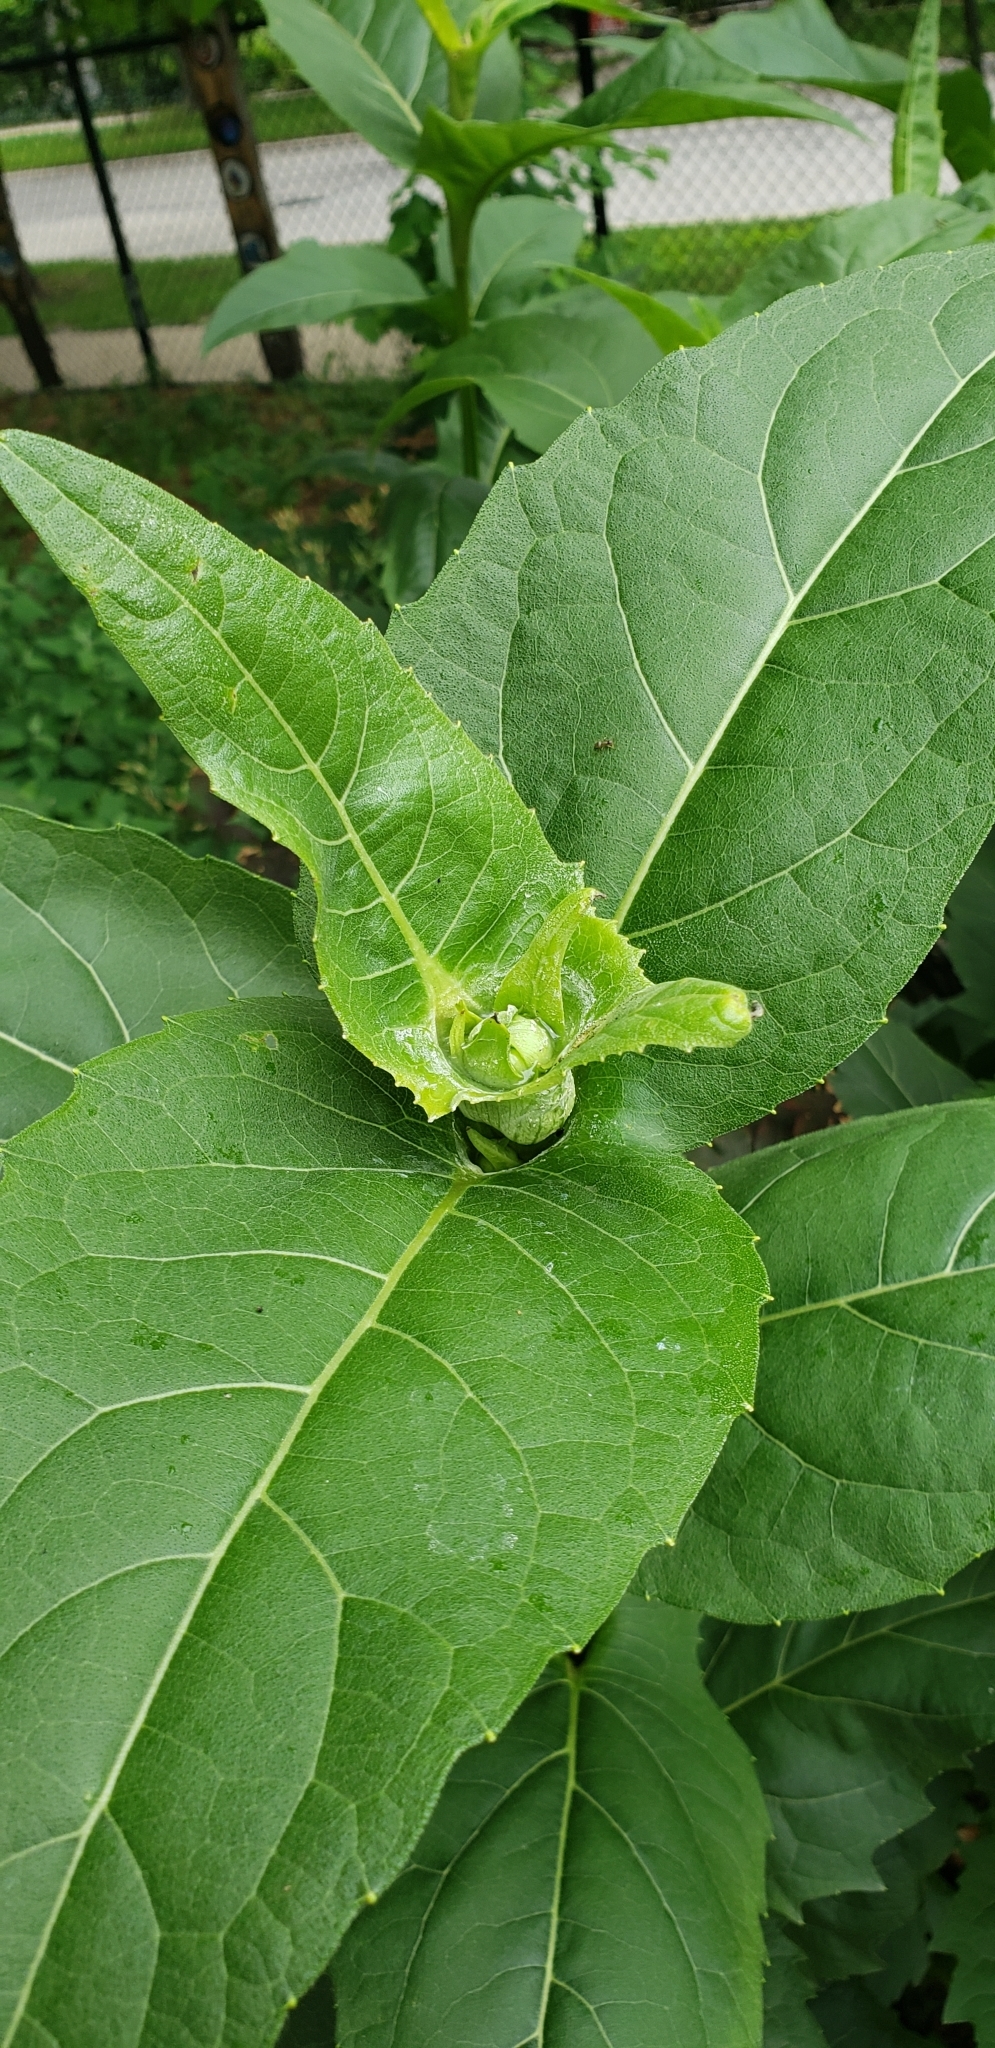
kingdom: Plantae
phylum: Tracheophyta
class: Magnoliopsida
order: Asterales
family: Asteraceae
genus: Silphium
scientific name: Silphium perfoliatum
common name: Cup-plant
